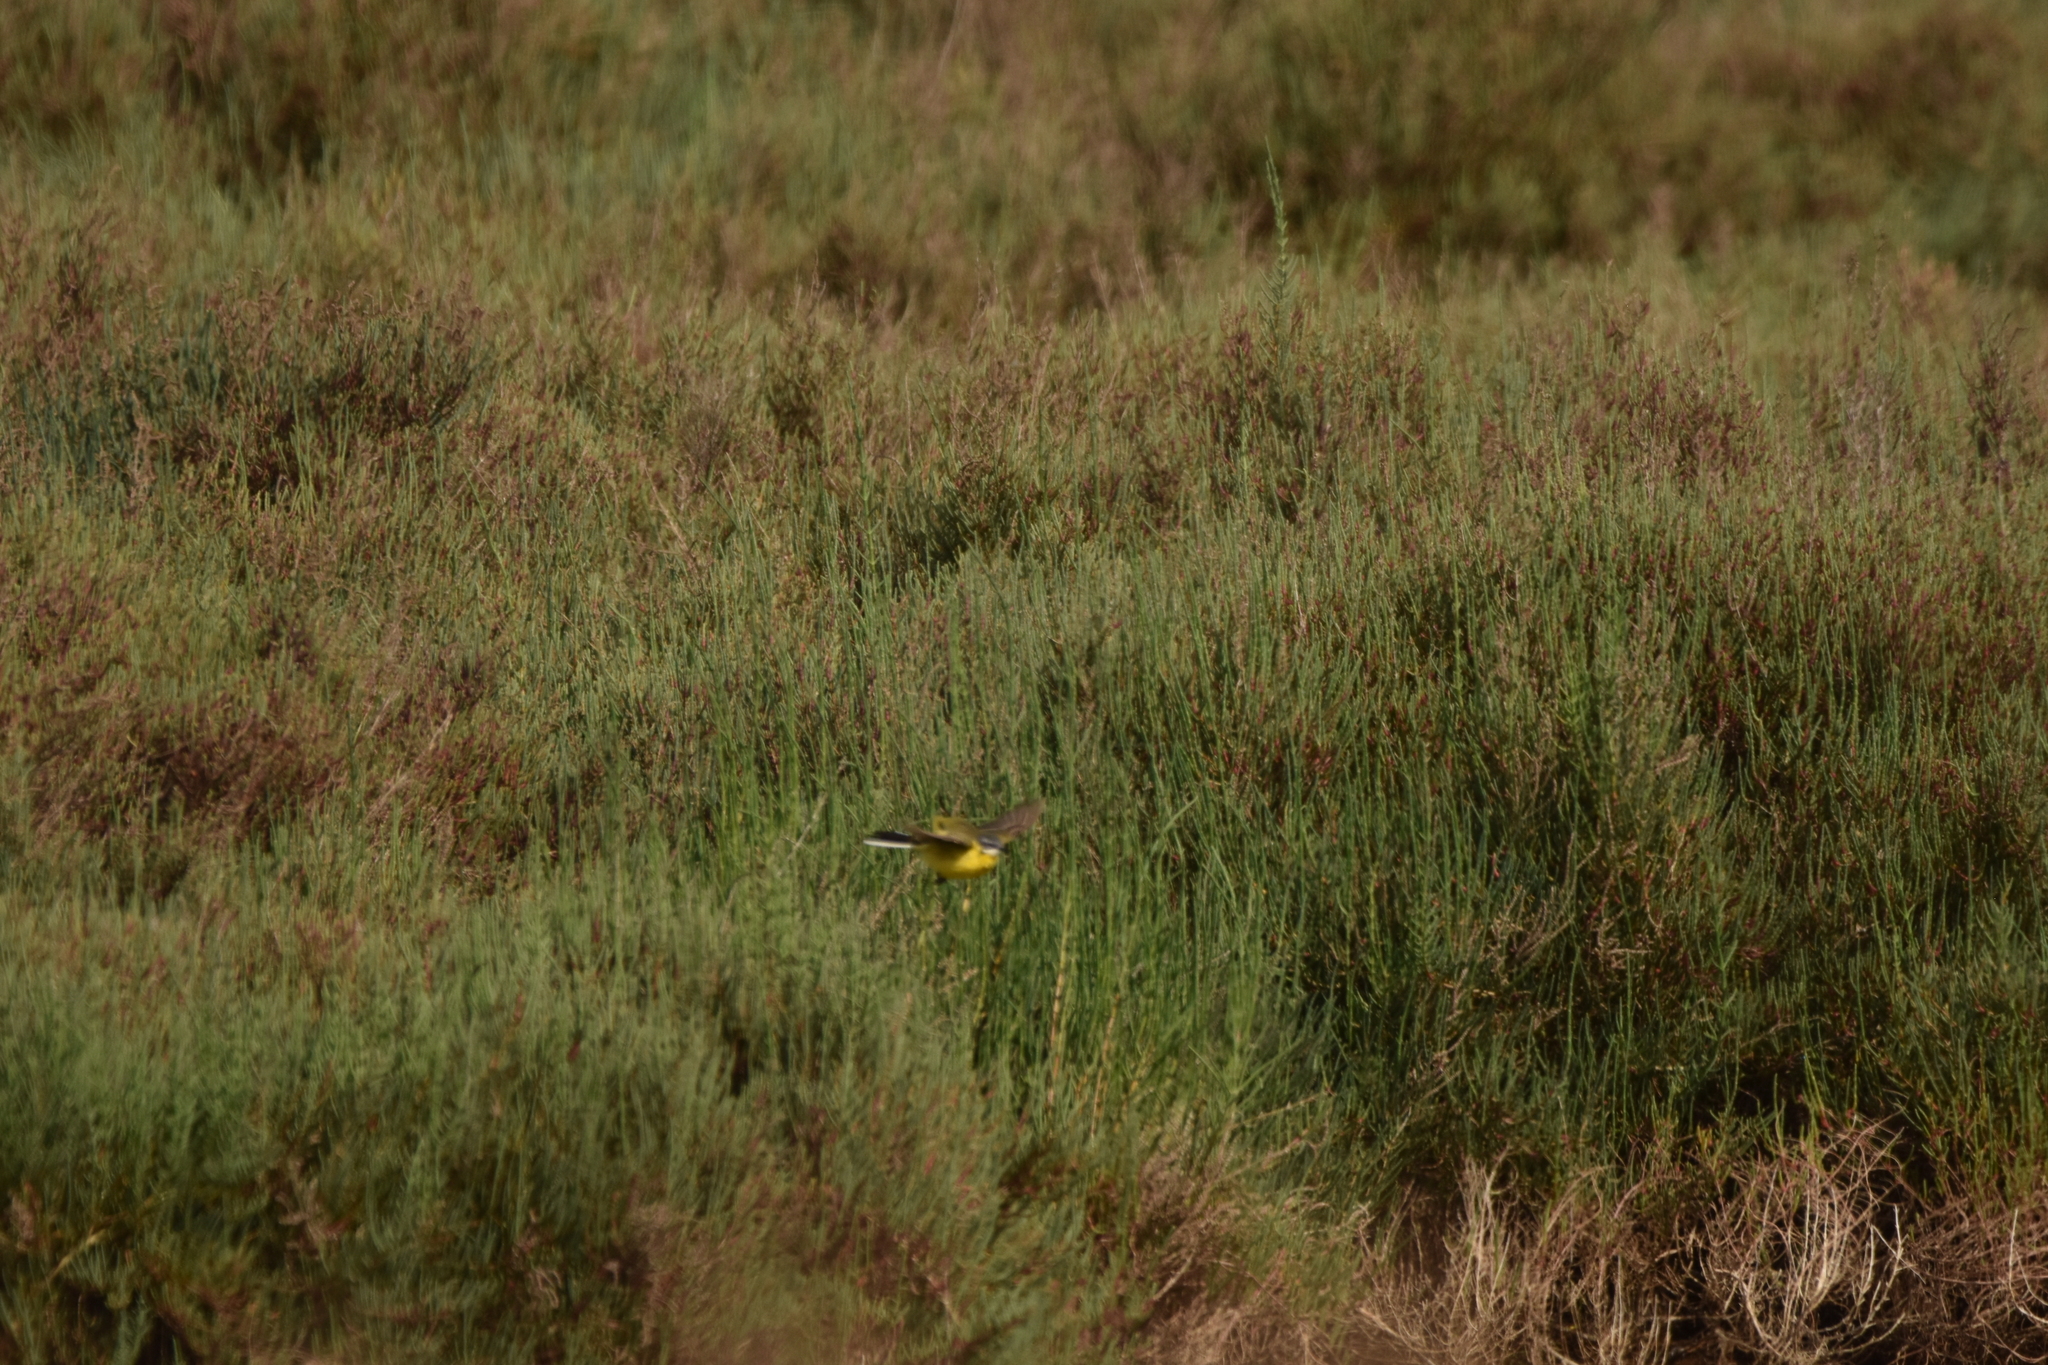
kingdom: Animalia
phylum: Chordata
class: Aves
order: Passeriformes
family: Motacillidae
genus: Motacilla
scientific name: Motacilla flava
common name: Western yellow wagtail
